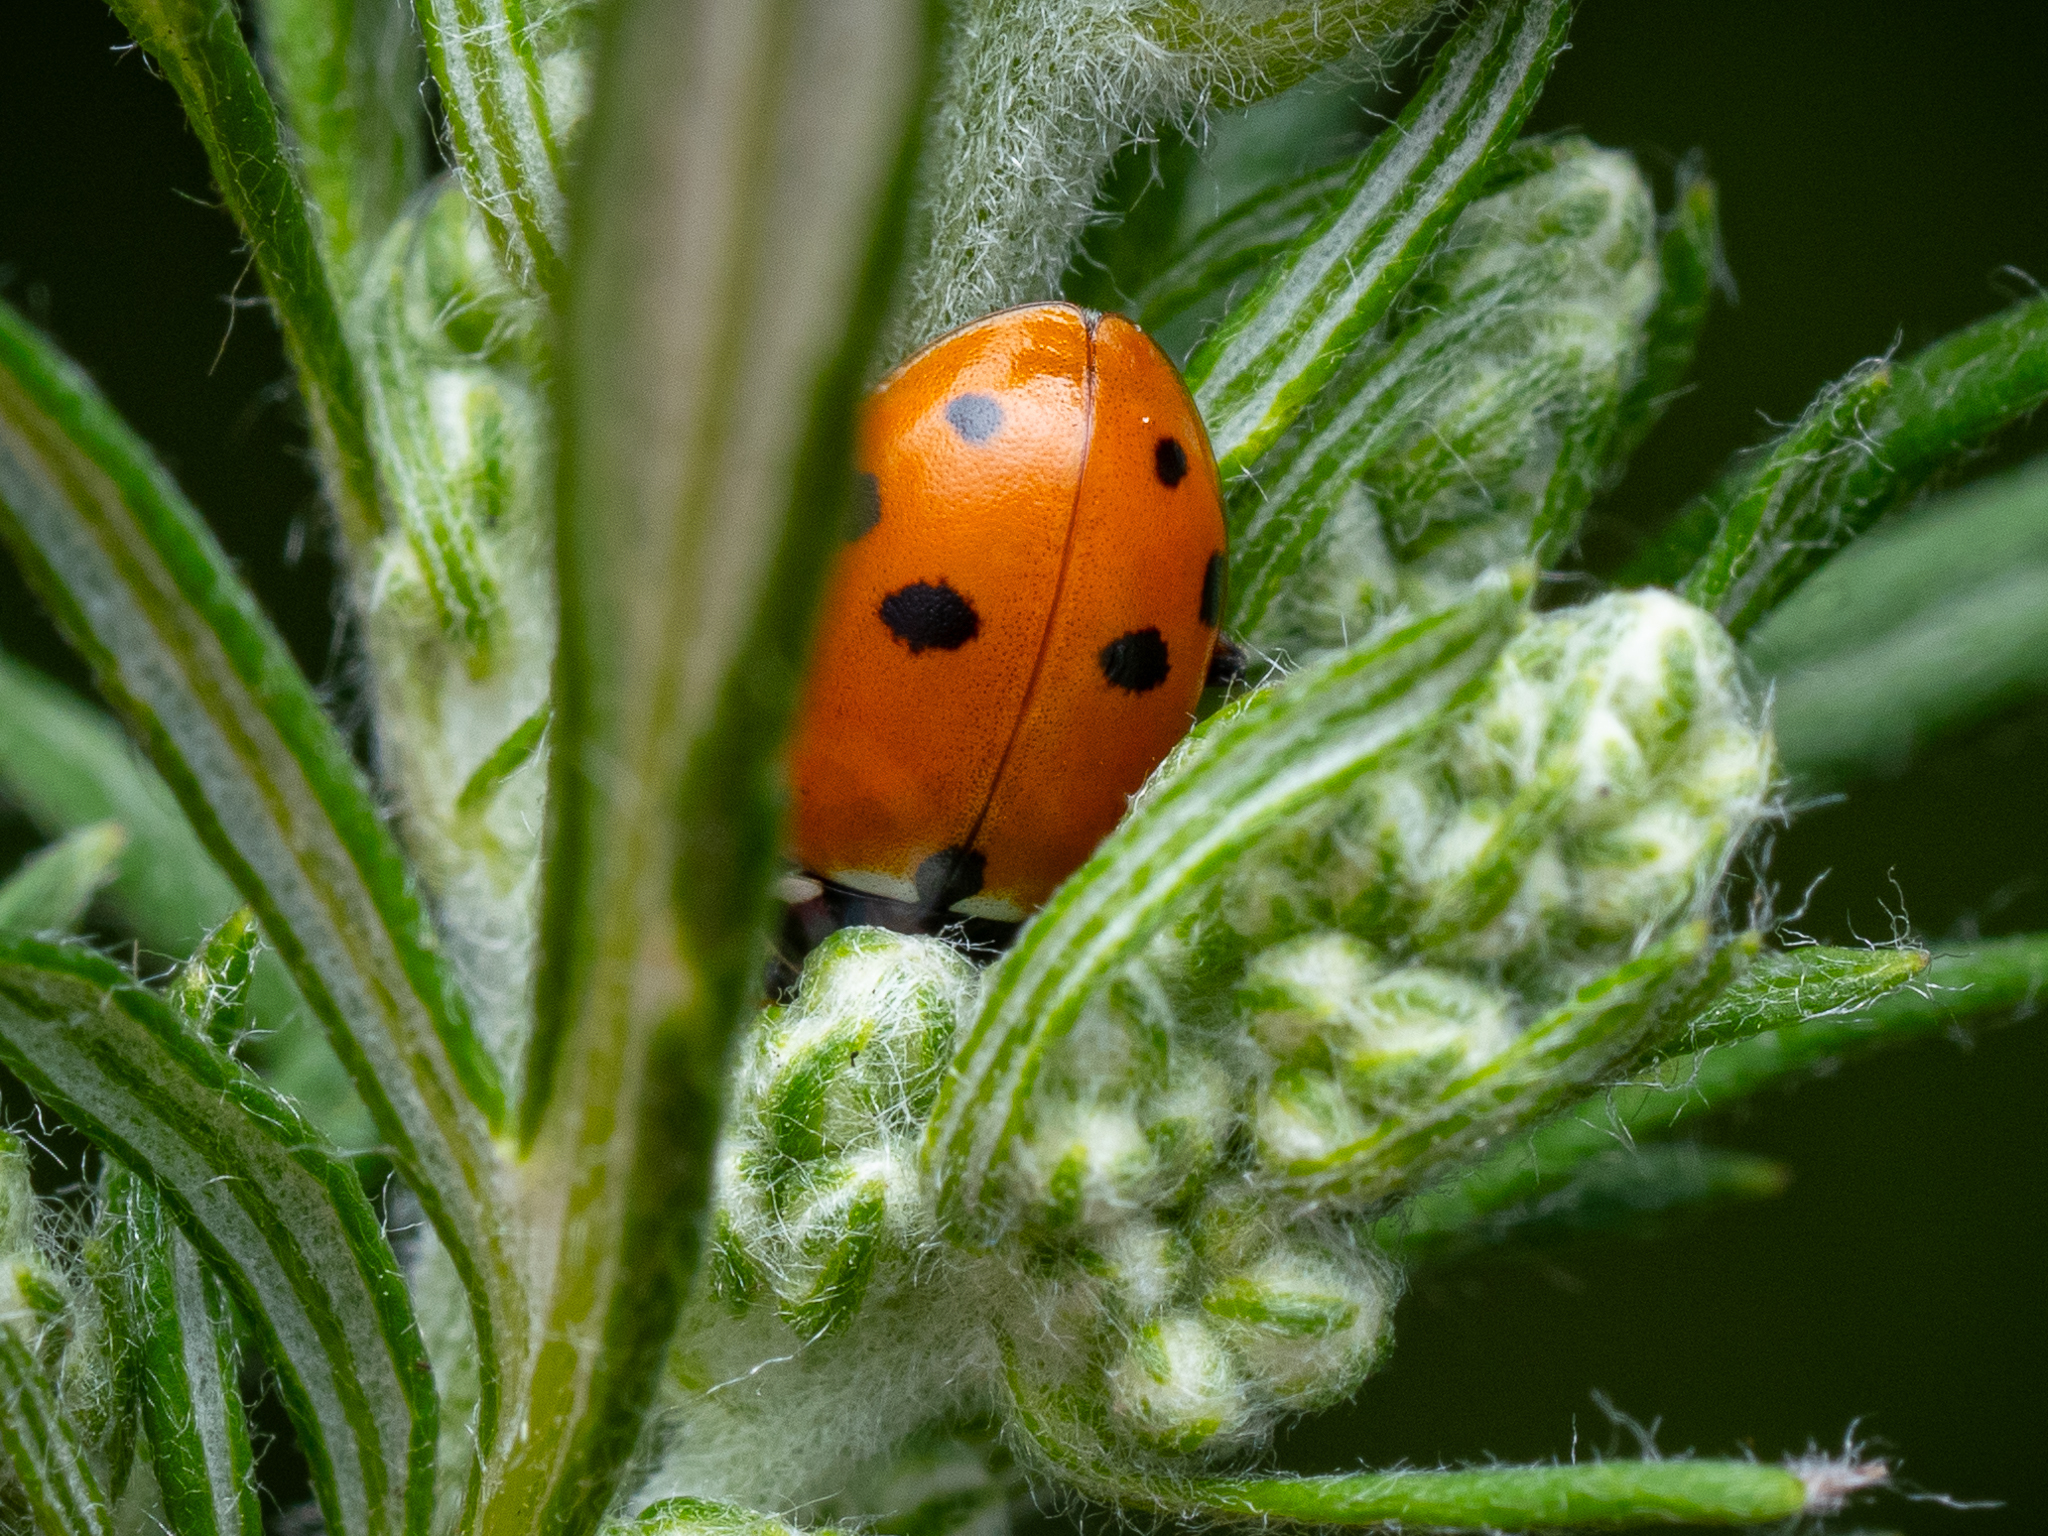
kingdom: Animalia
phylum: Arthropoda
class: Insecta
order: Coleoptera
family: Coccinellidae
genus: Hippodamia
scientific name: Hippodamia variegata
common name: Ladybird beetle
